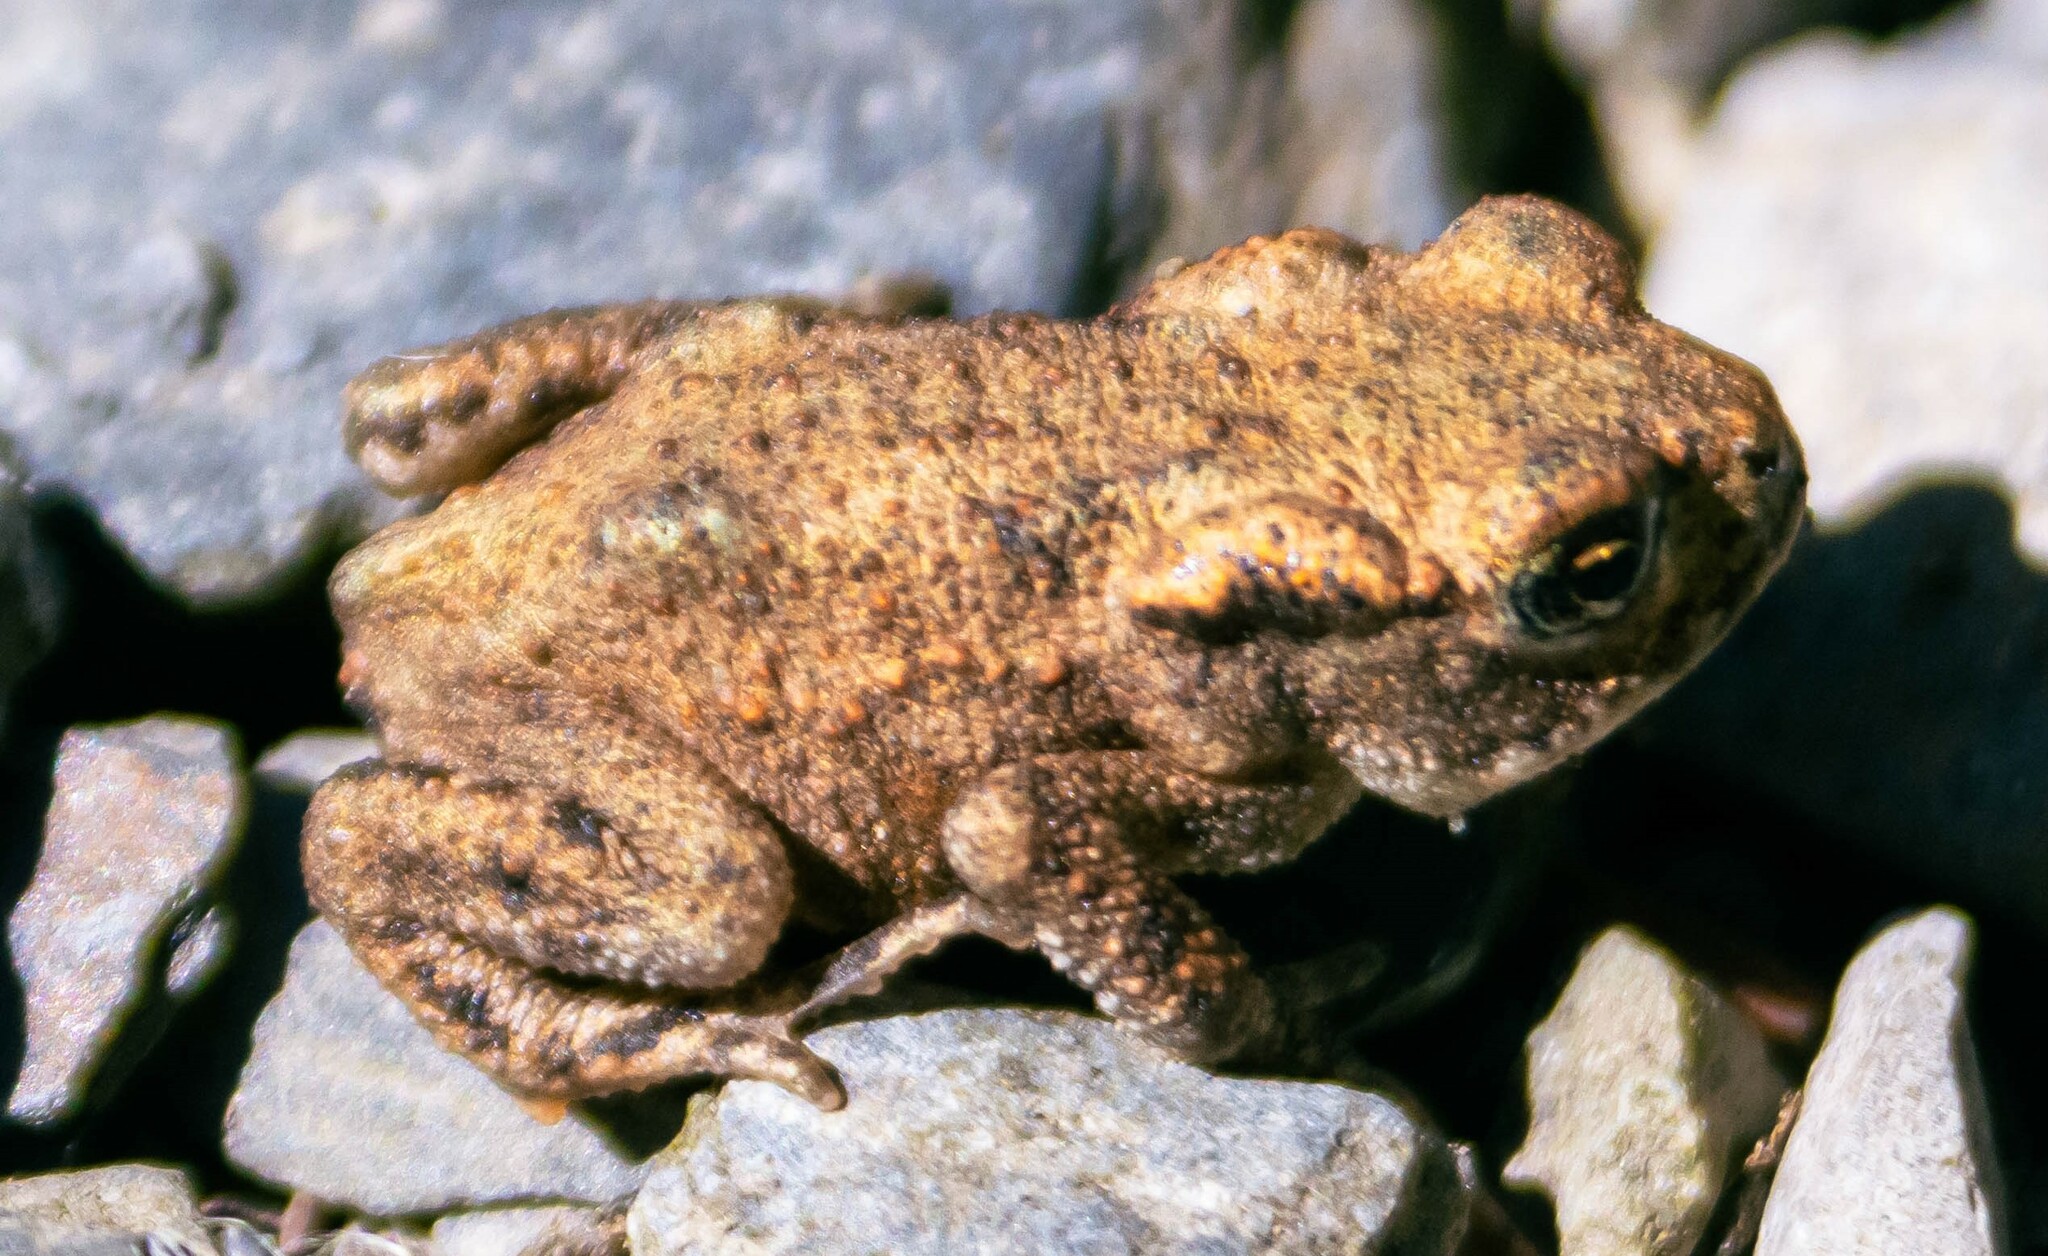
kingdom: Animalia
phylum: Chordata
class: Amphibia
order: Anura
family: Bufonidae
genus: Bufo
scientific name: Bufo bufo
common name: Common toad
